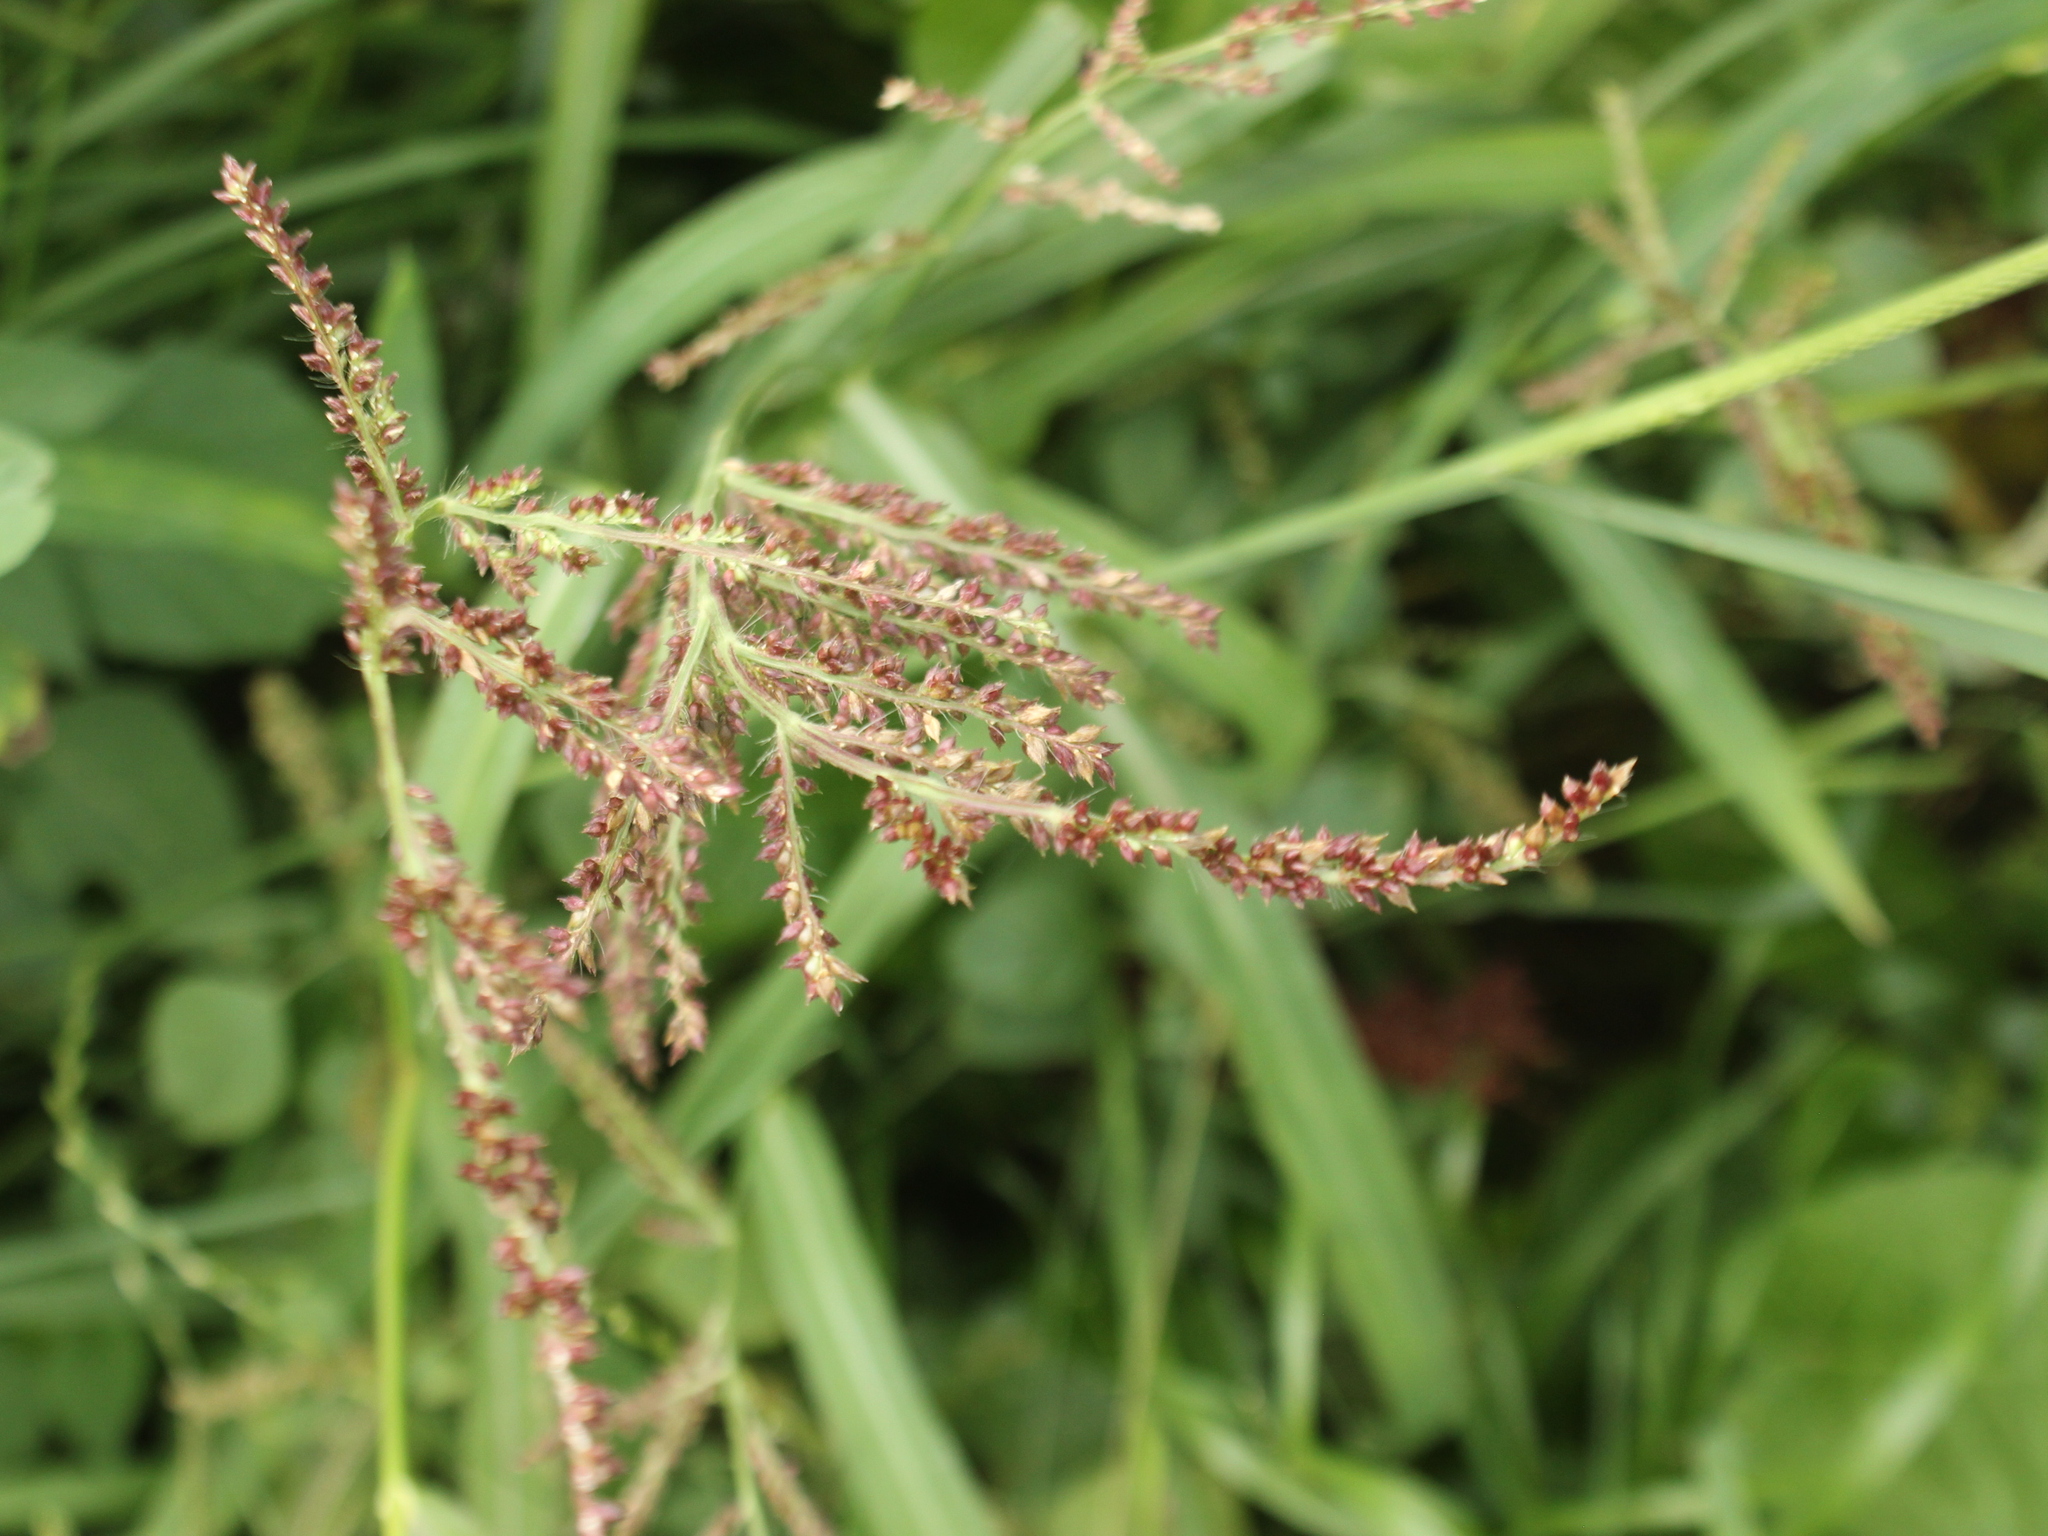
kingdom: Plantae
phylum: Tracheophyta
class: Liliopsida
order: Poales
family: Poaceae
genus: Echinochloa
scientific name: Echinochloa crus-galli
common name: Cockspur
